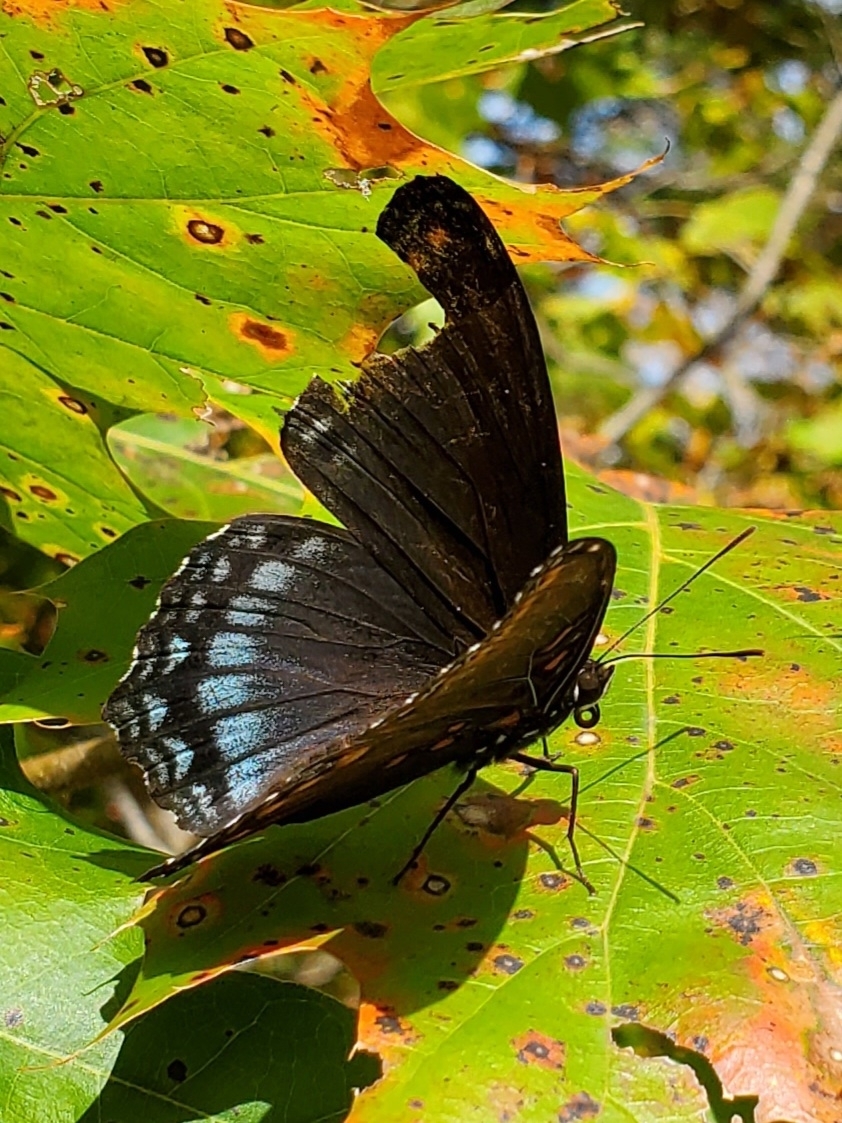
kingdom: Animalia
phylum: Arthropoda
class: Insecta
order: Lepidoptera
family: Nymphalidae
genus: Limenitis
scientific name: Limenitis astyanax
